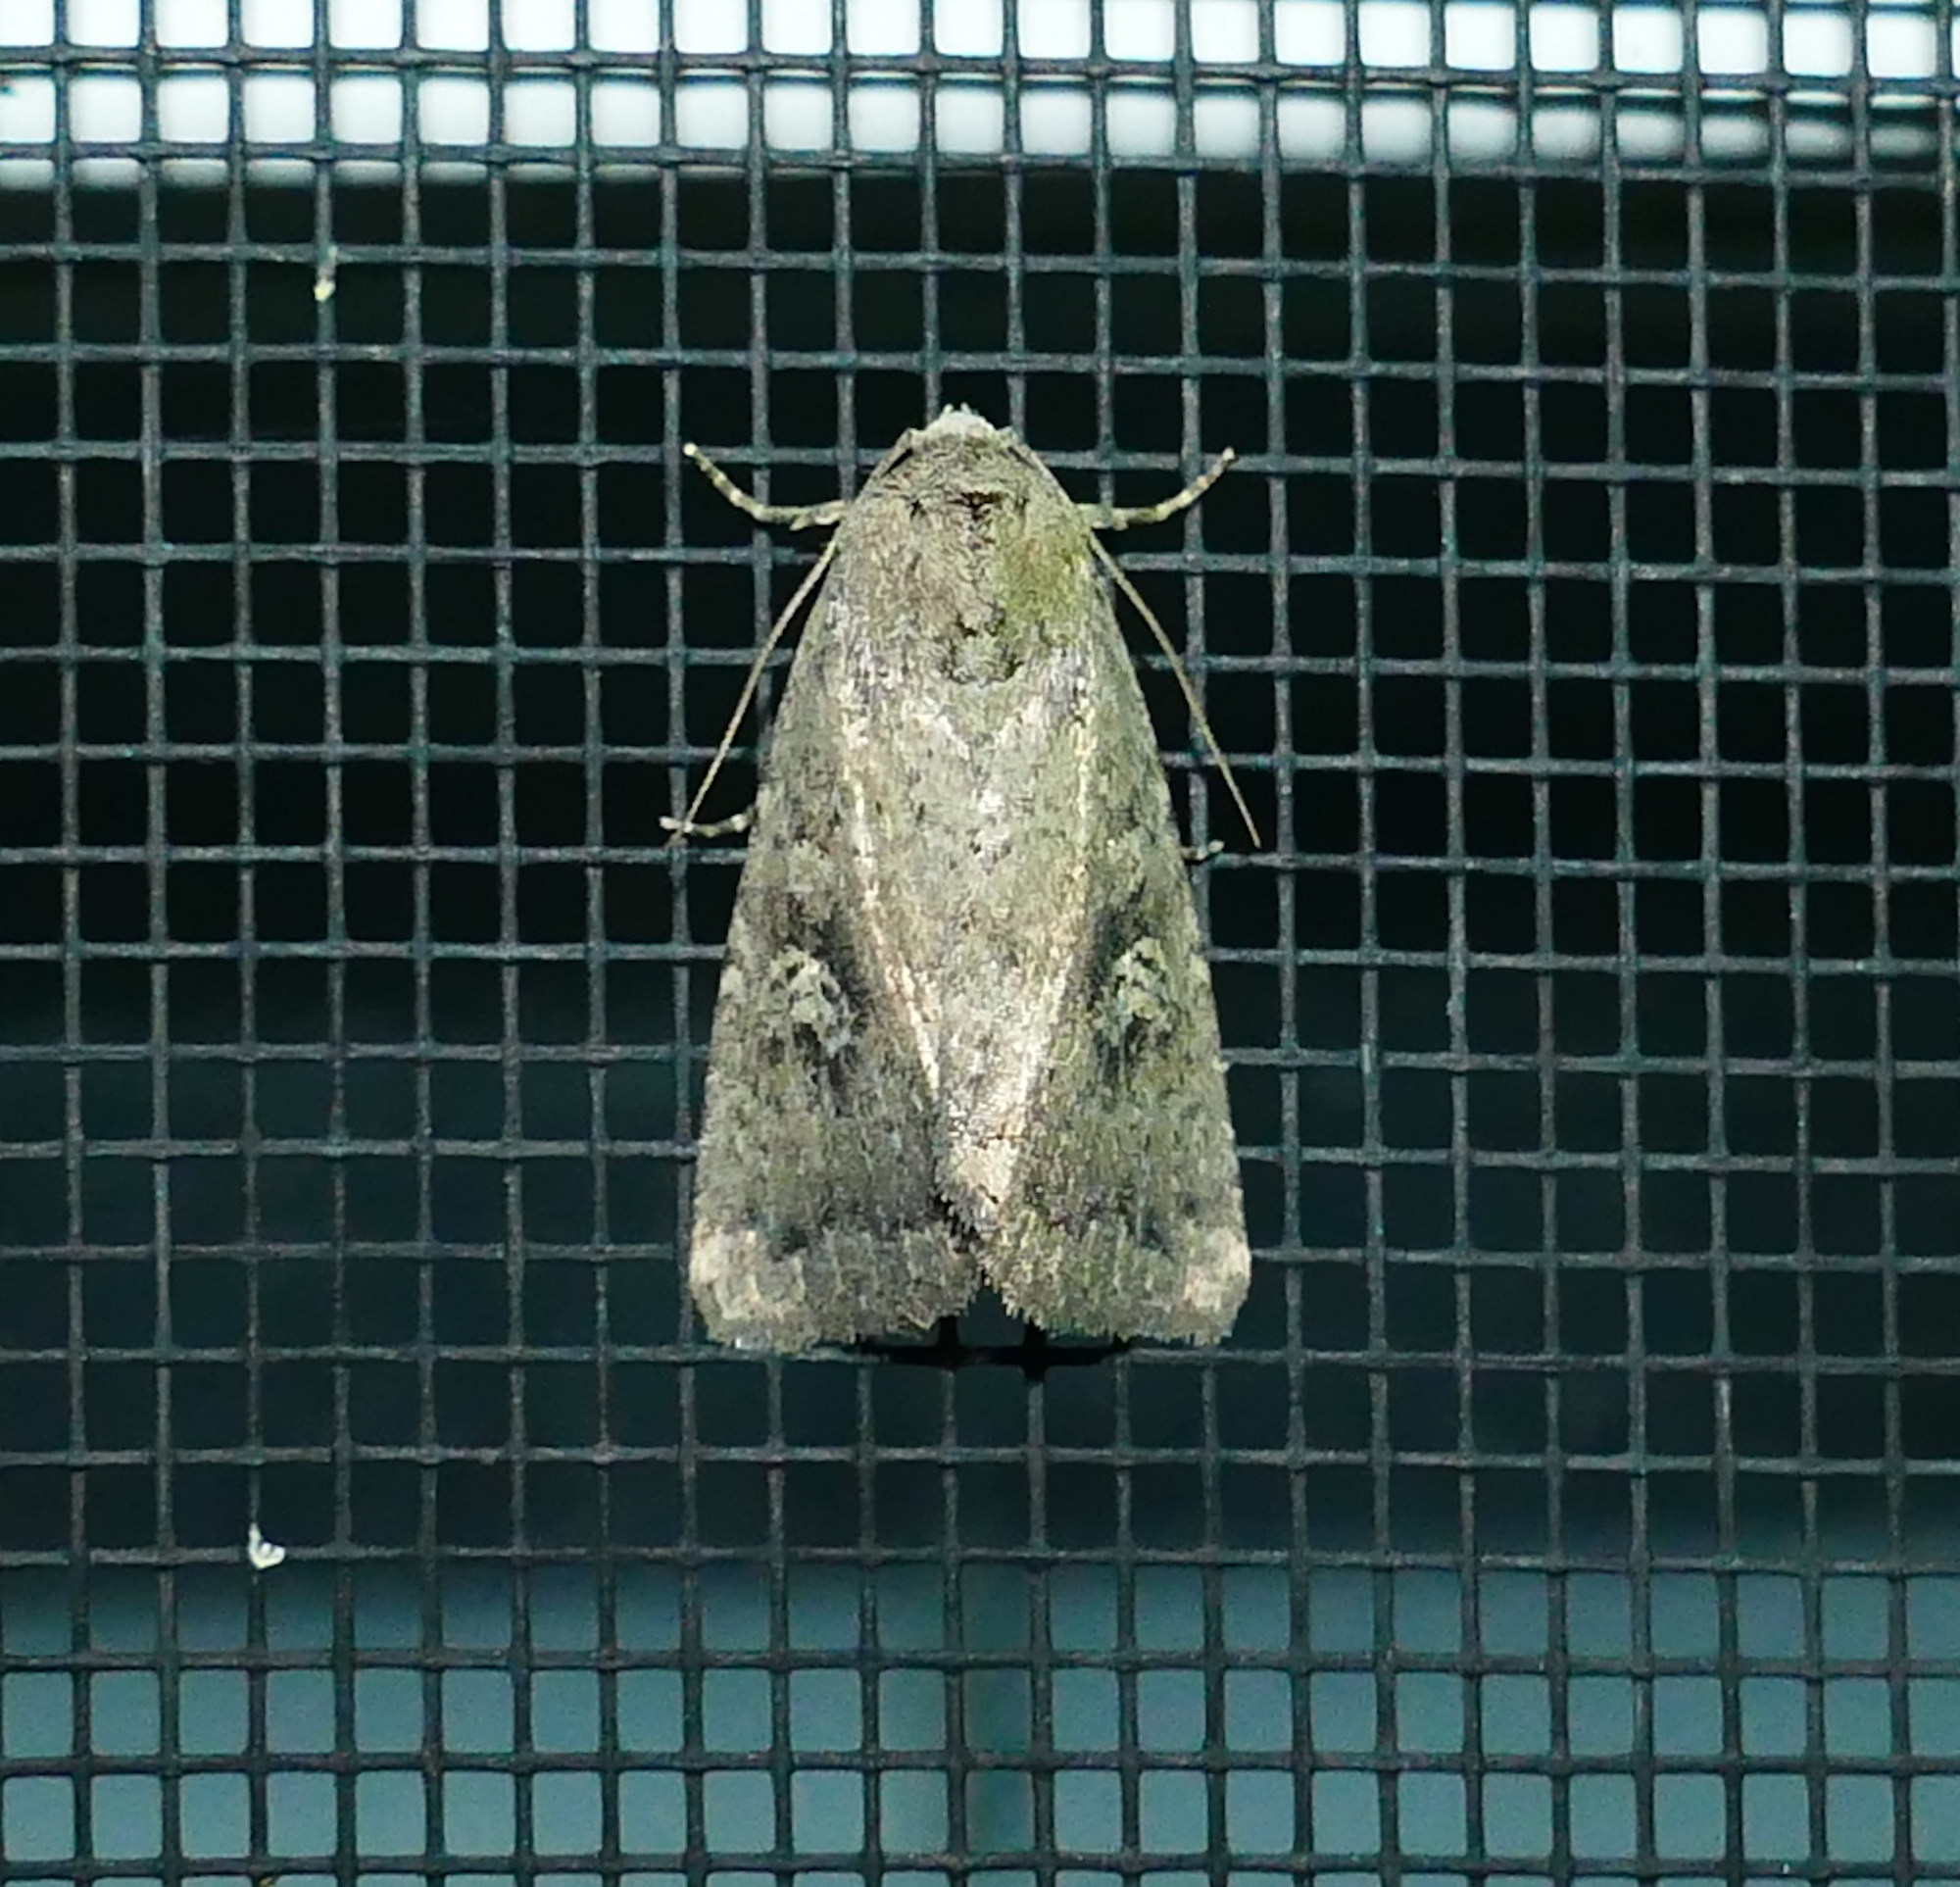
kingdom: Animalia
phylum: Arthropoda
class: Insecta
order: Lepidoptera
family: Noctuidae
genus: Condica
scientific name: Condica sutor
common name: Cobbler moth
